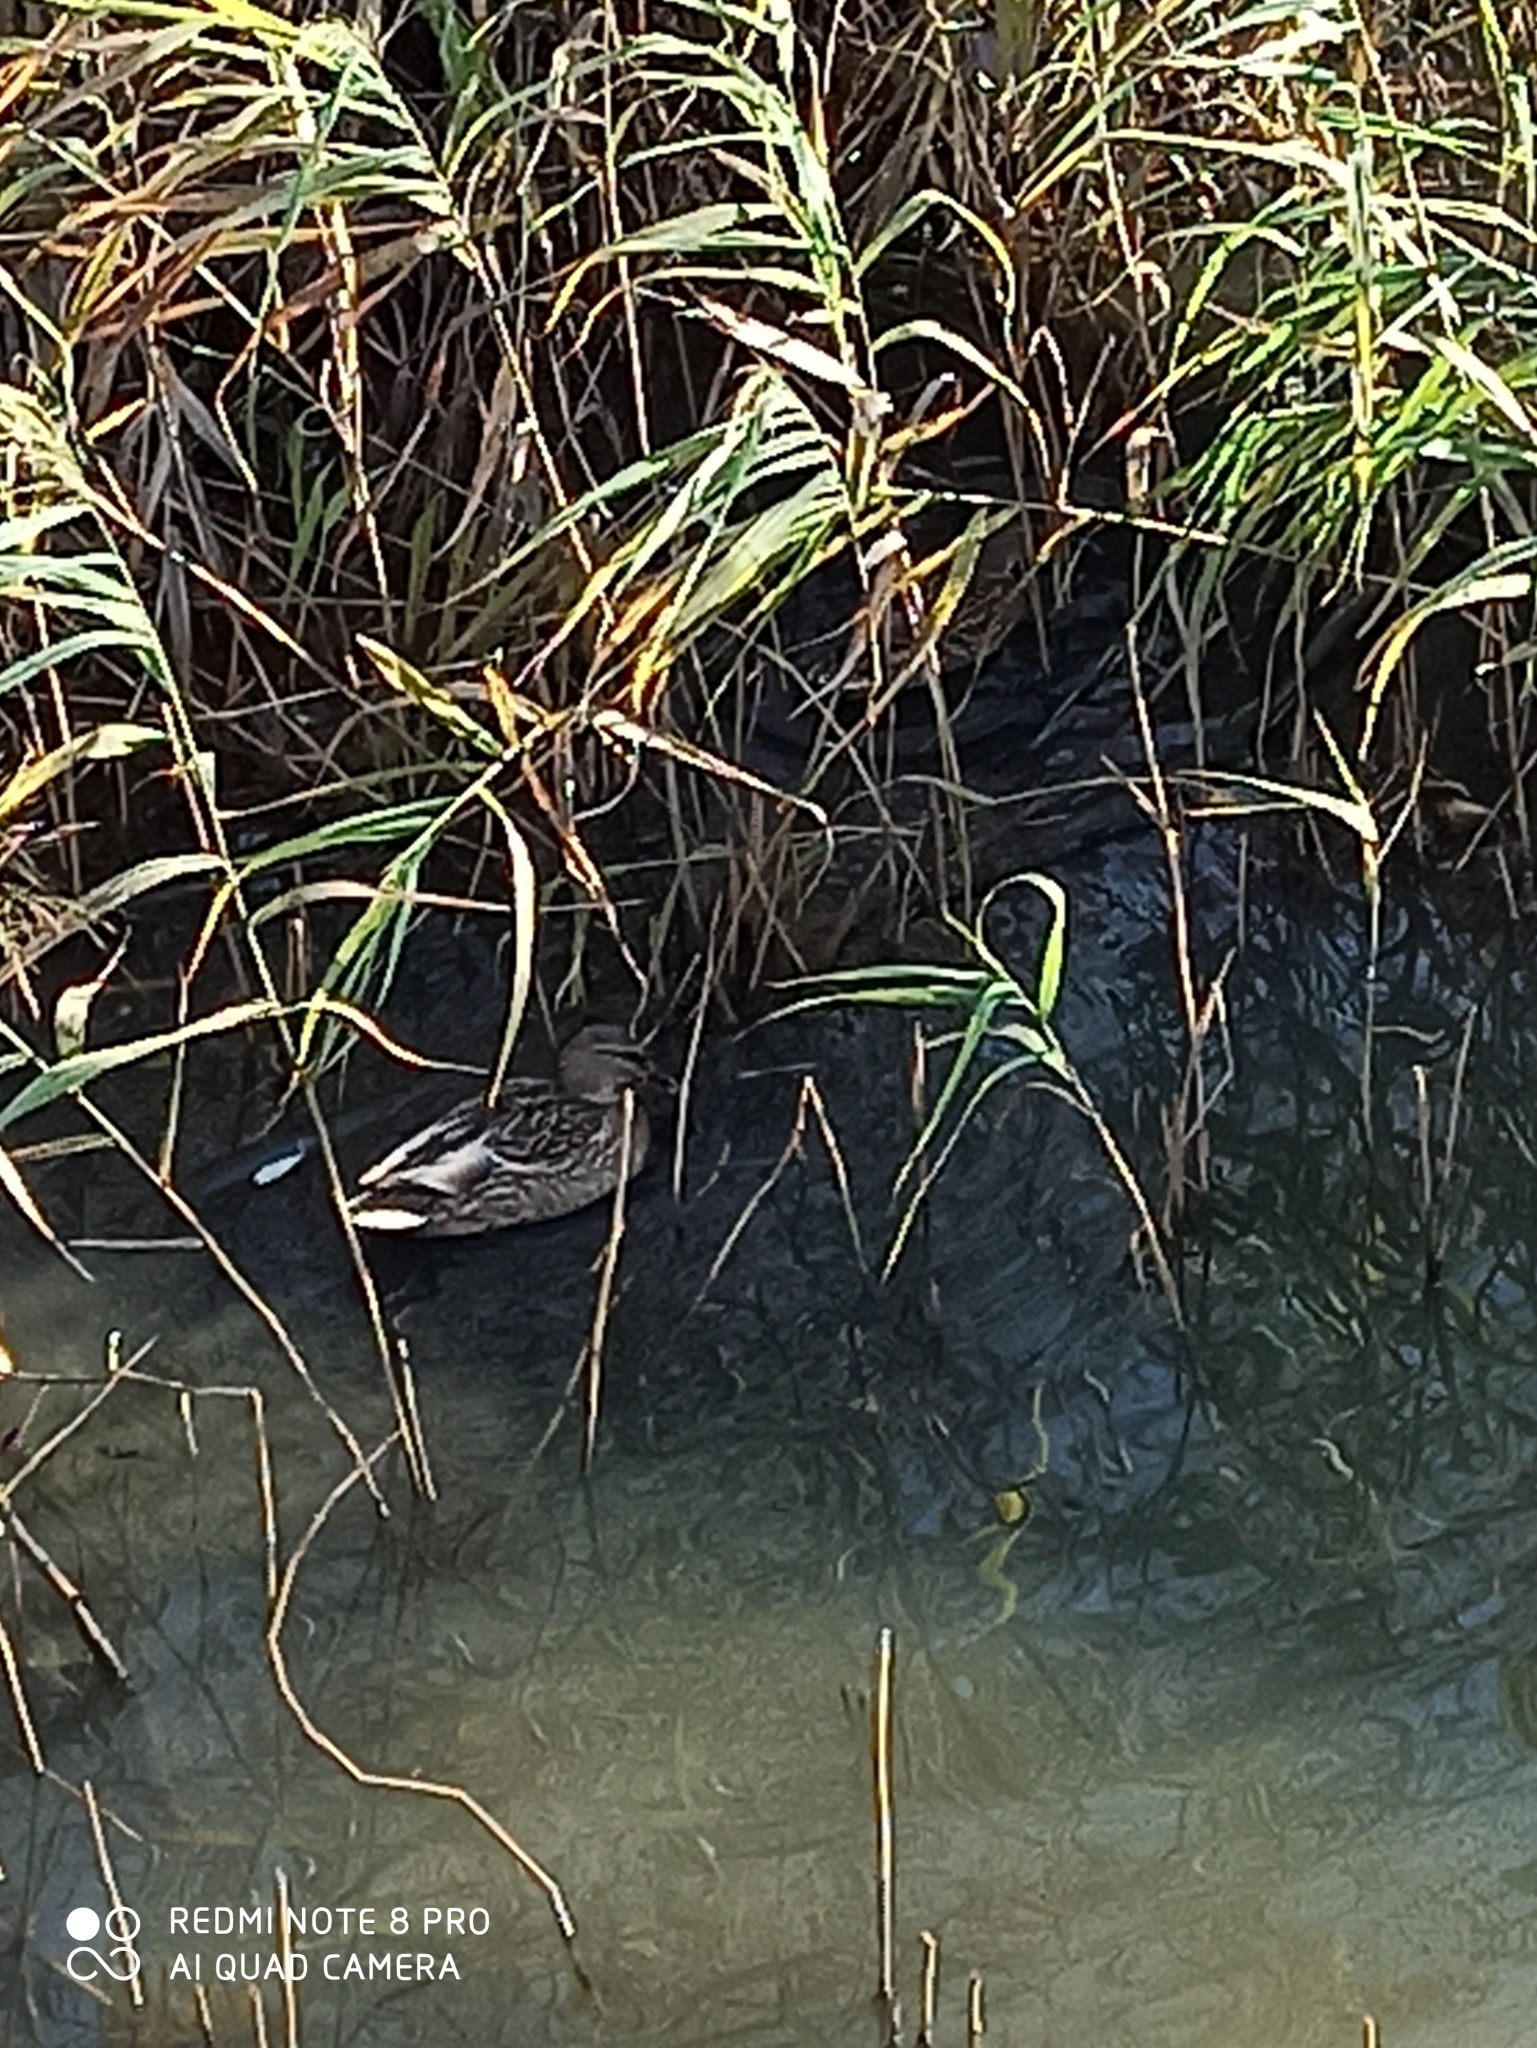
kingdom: Animalia
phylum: Chordata
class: Aves
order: Anseriformes
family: Anatidae
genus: Anas
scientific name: Anas platyrhynchos
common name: Mallard
